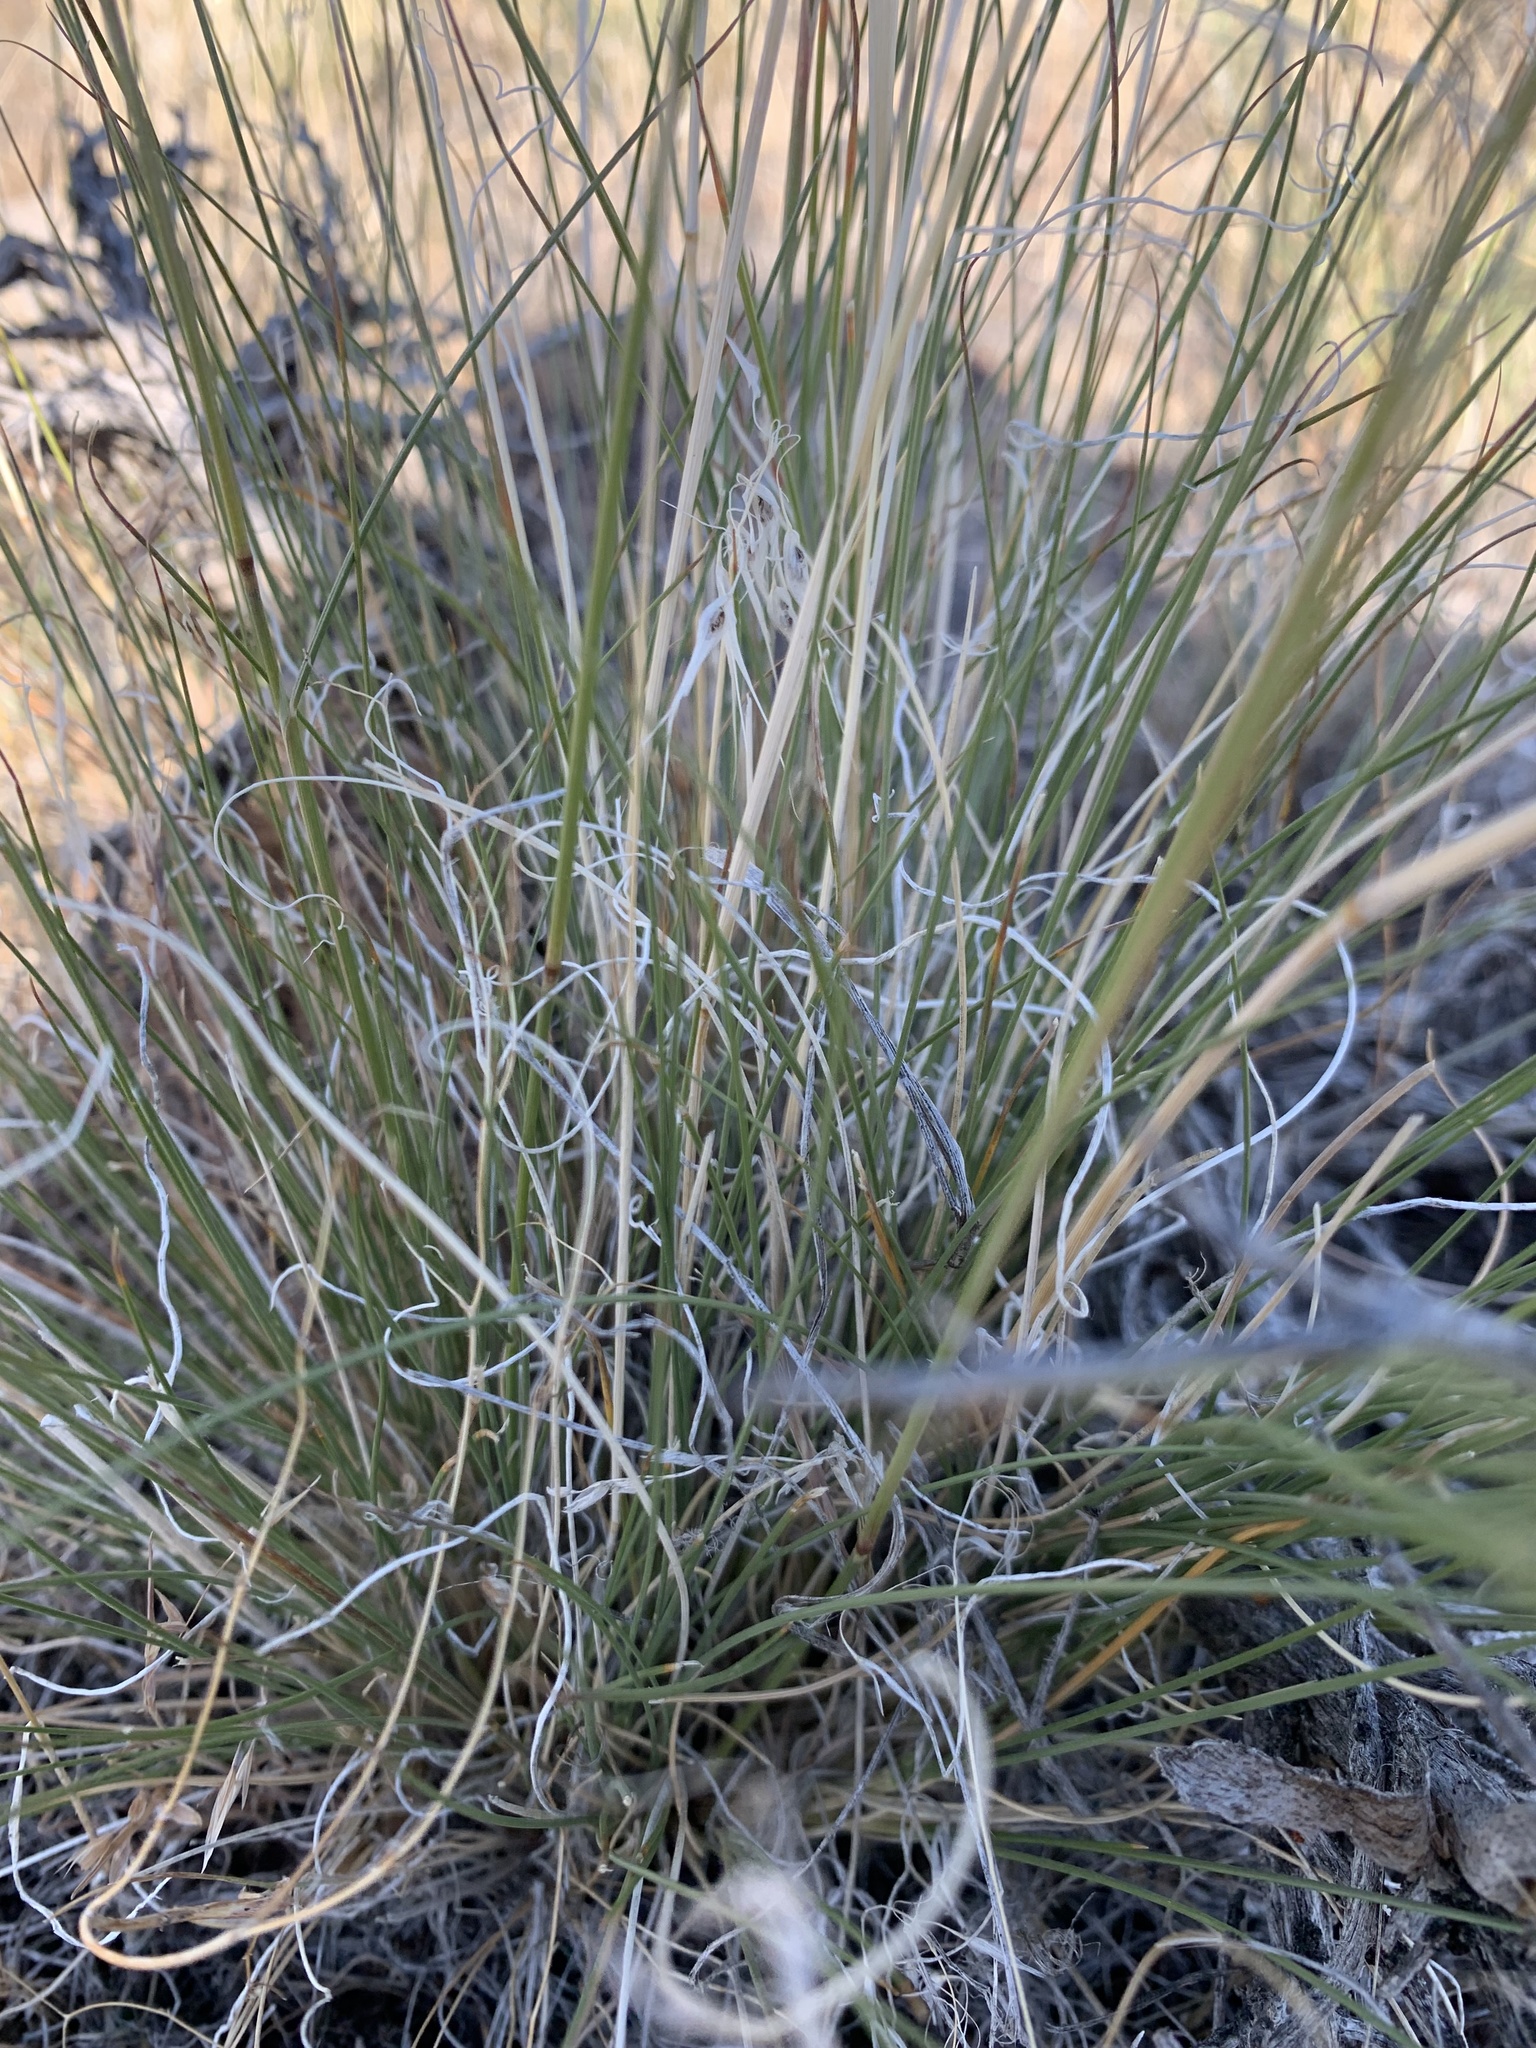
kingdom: Plantae
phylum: Tracheophyta
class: Liliopsida
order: Poales
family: Poaceae
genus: Eriocoma
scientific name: Eriocoma thurberiana
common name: Thurber's needlegrass
